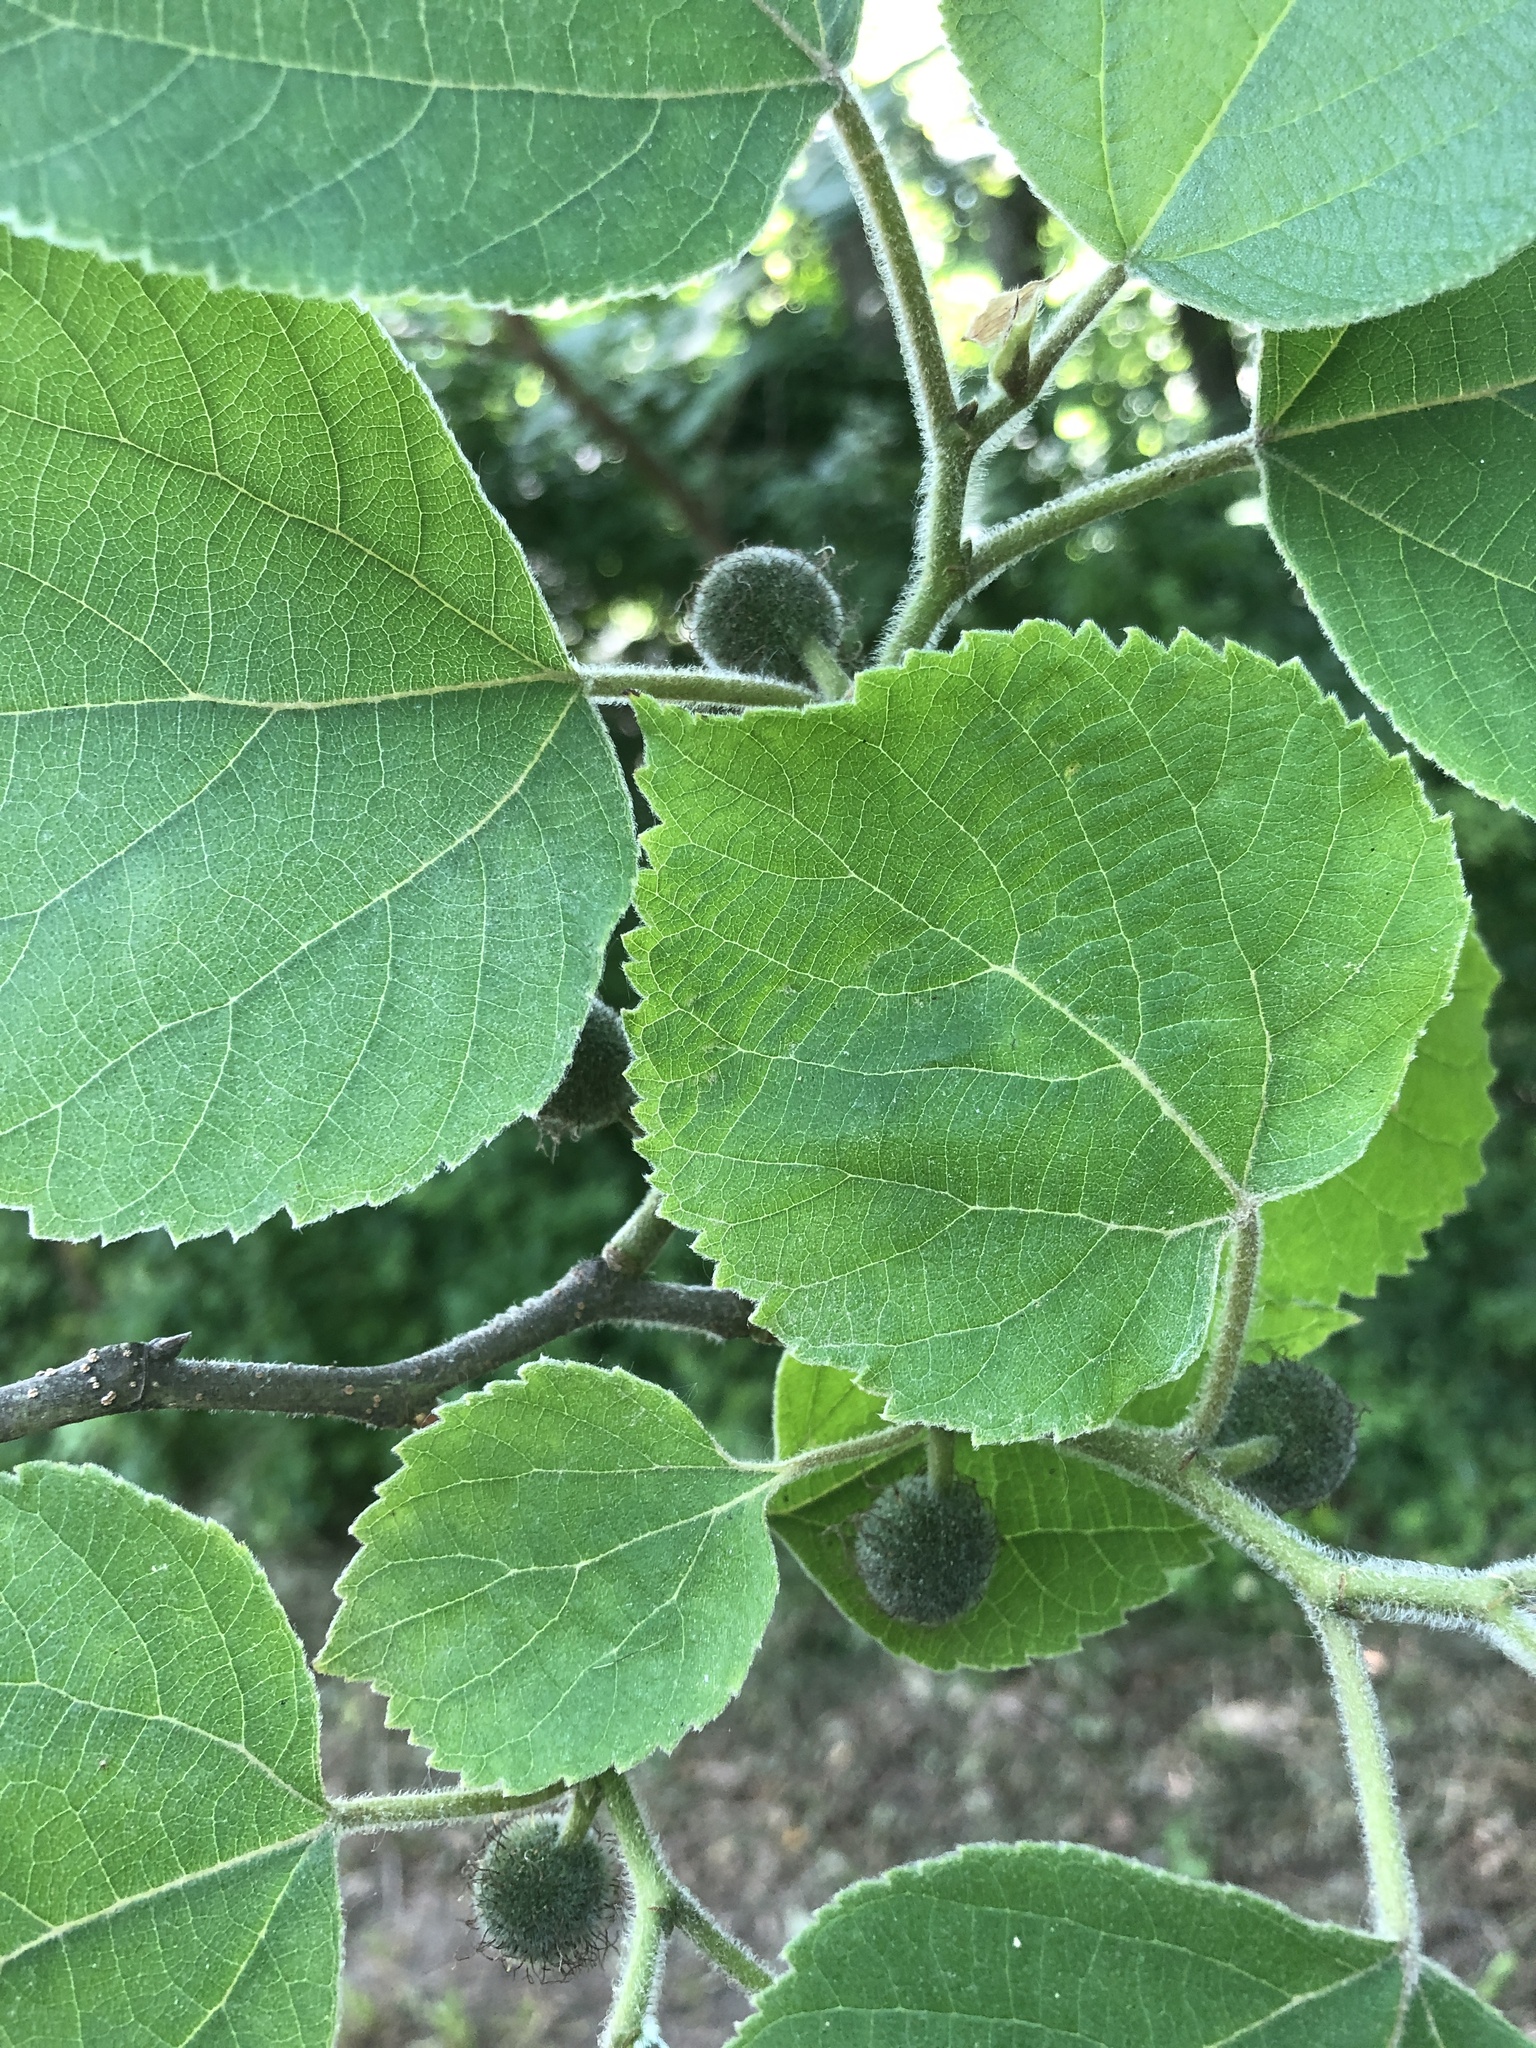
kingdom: Plantae
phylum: Tracheophyta
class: Magnoliopsida
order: Rosales
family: Moraceae
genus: Broussonetia
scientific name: Broussonetia papyrifera
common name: Paper mulberry
